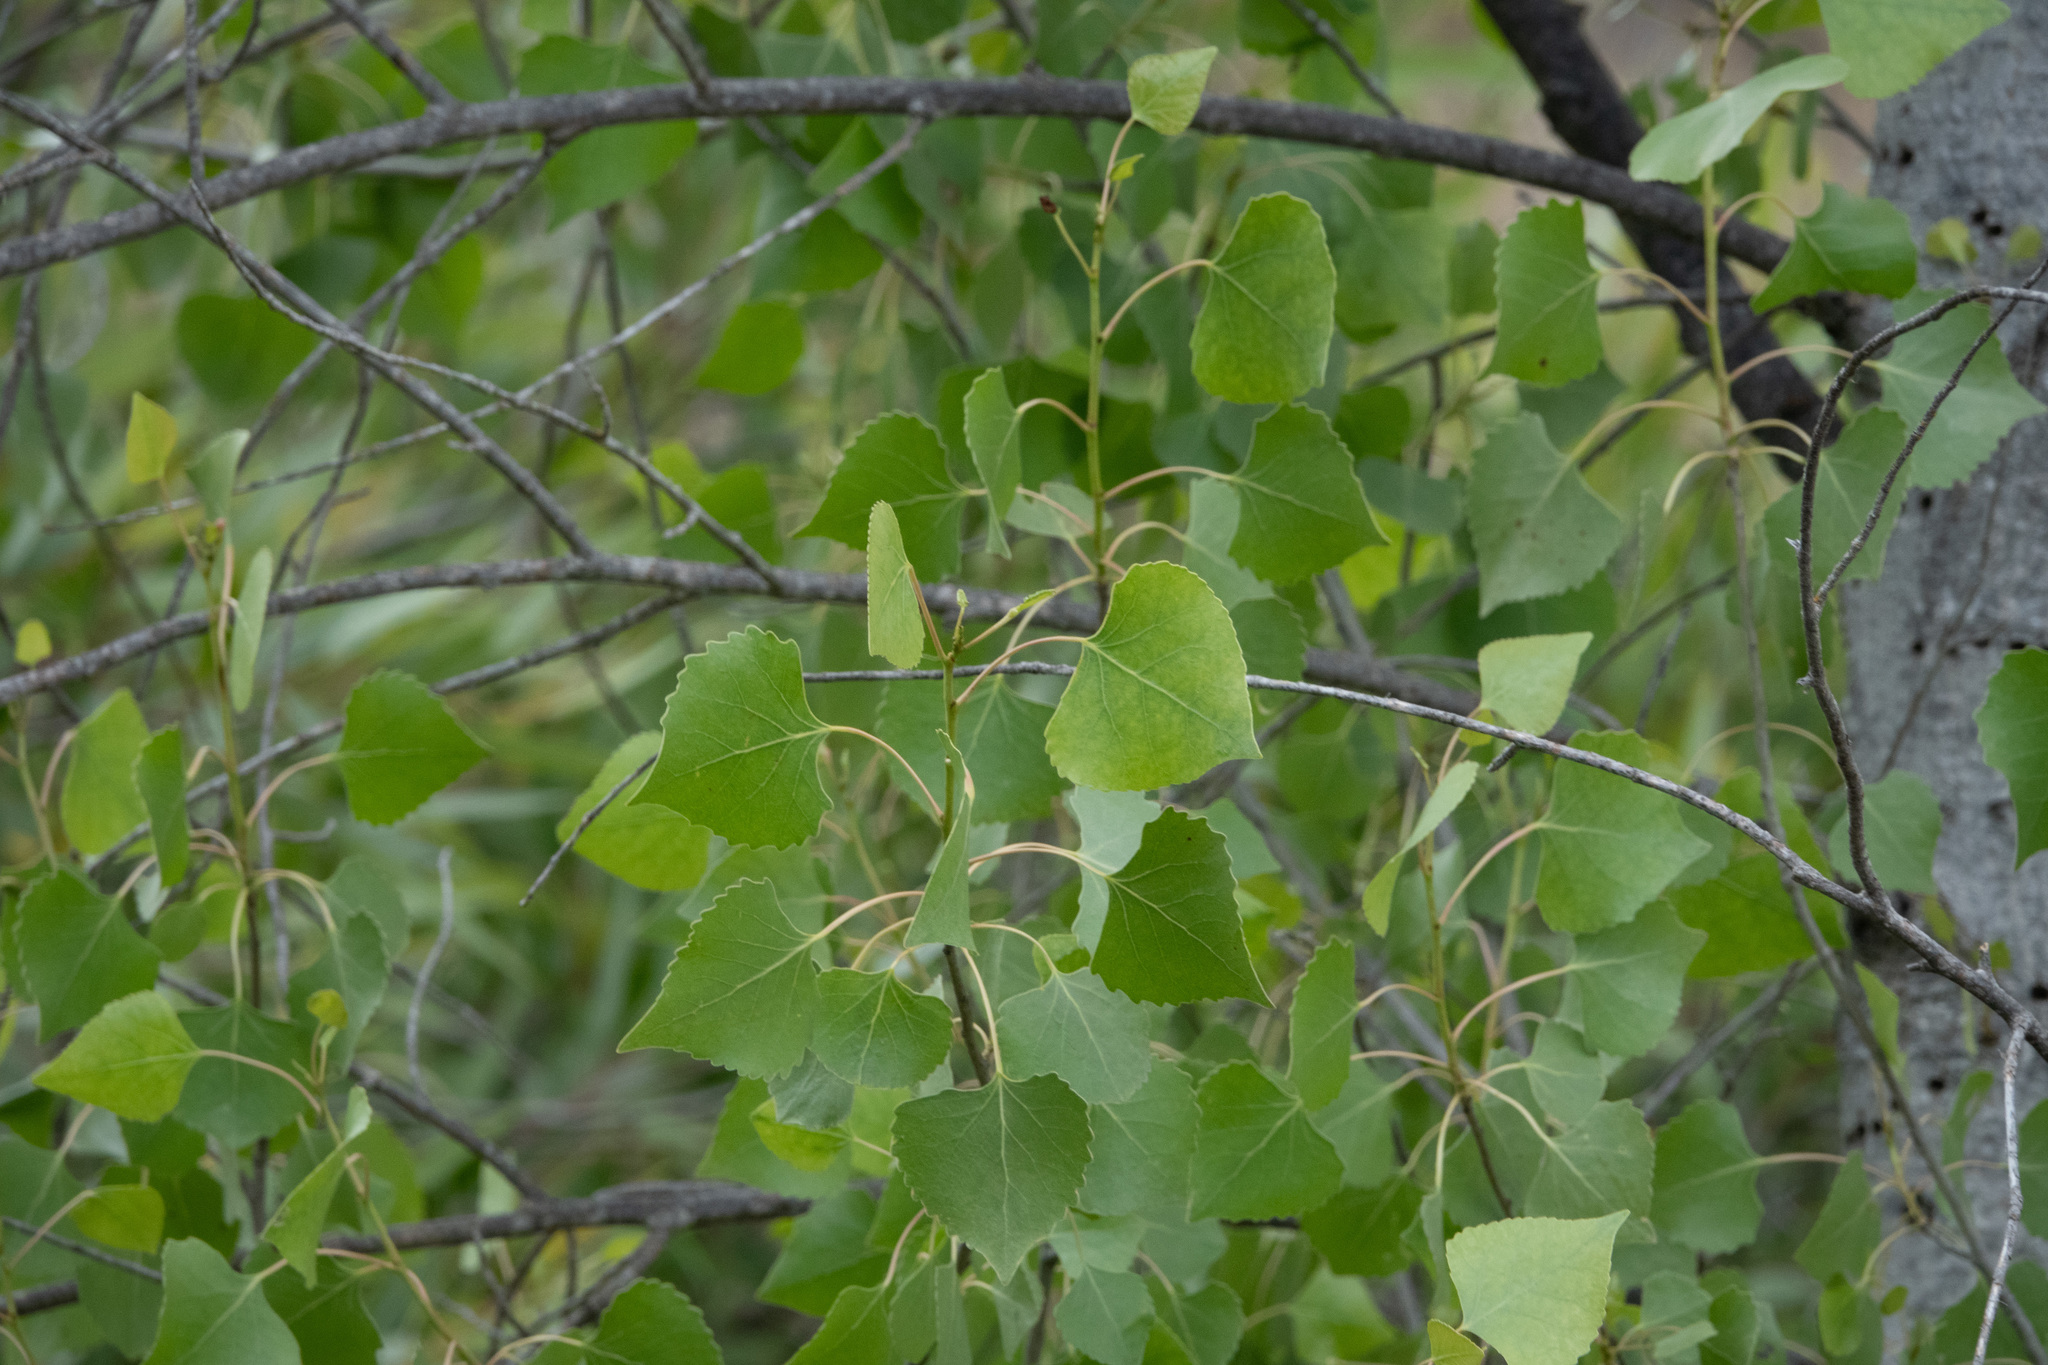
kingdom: Plantae
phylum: Tracheophyta
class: Magnoliopsida
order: Malpighiales
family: Salicaceae
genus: Populus
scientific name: Populus fremontii
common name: Fremont's cottonwood
